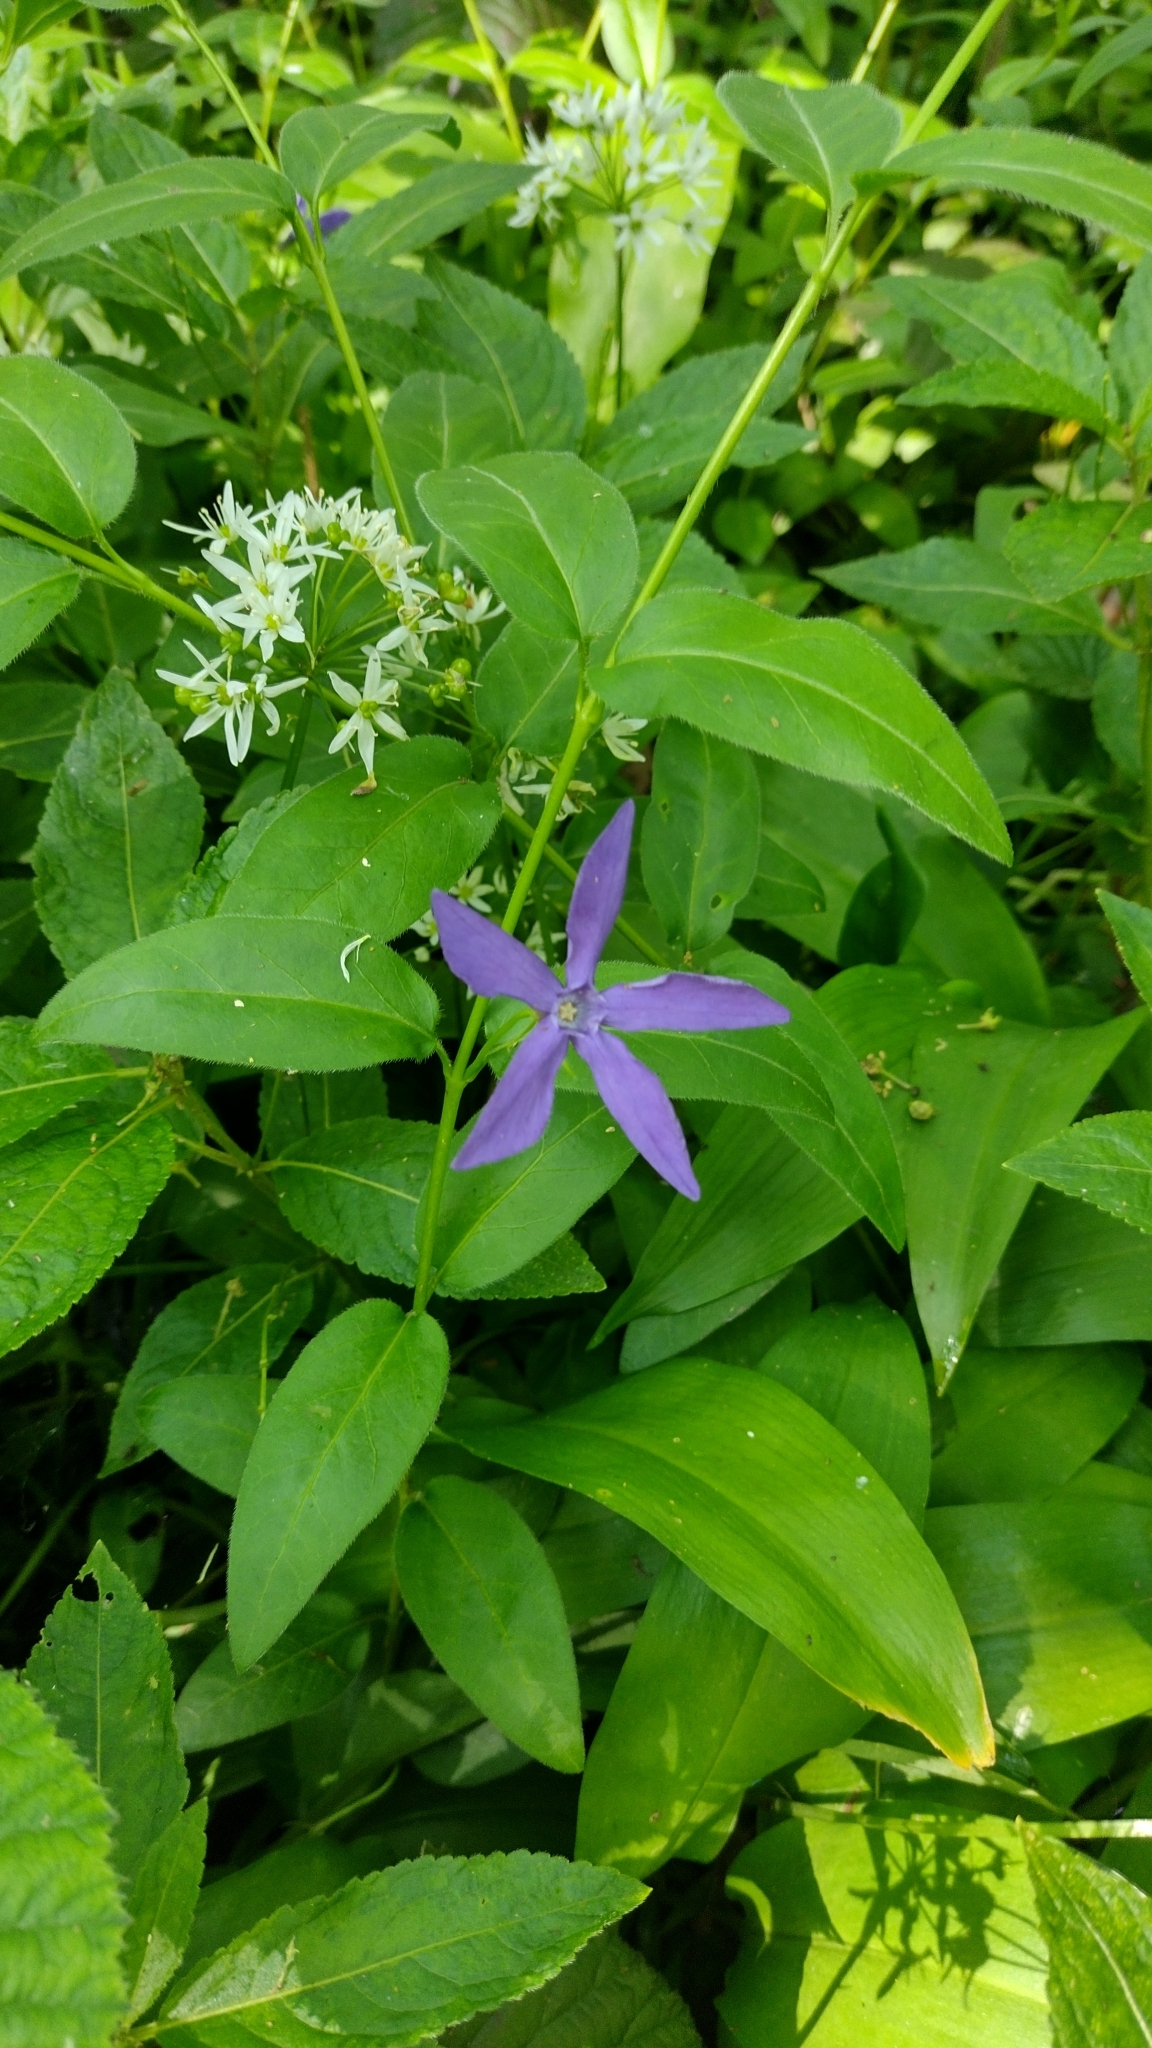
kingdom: Plantae
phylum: Tracheophyta
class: Magnoliopsida
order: Gentianales
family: Apocynaceae
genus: Vinca
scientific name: Vinca major
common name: Greater periwinkle
